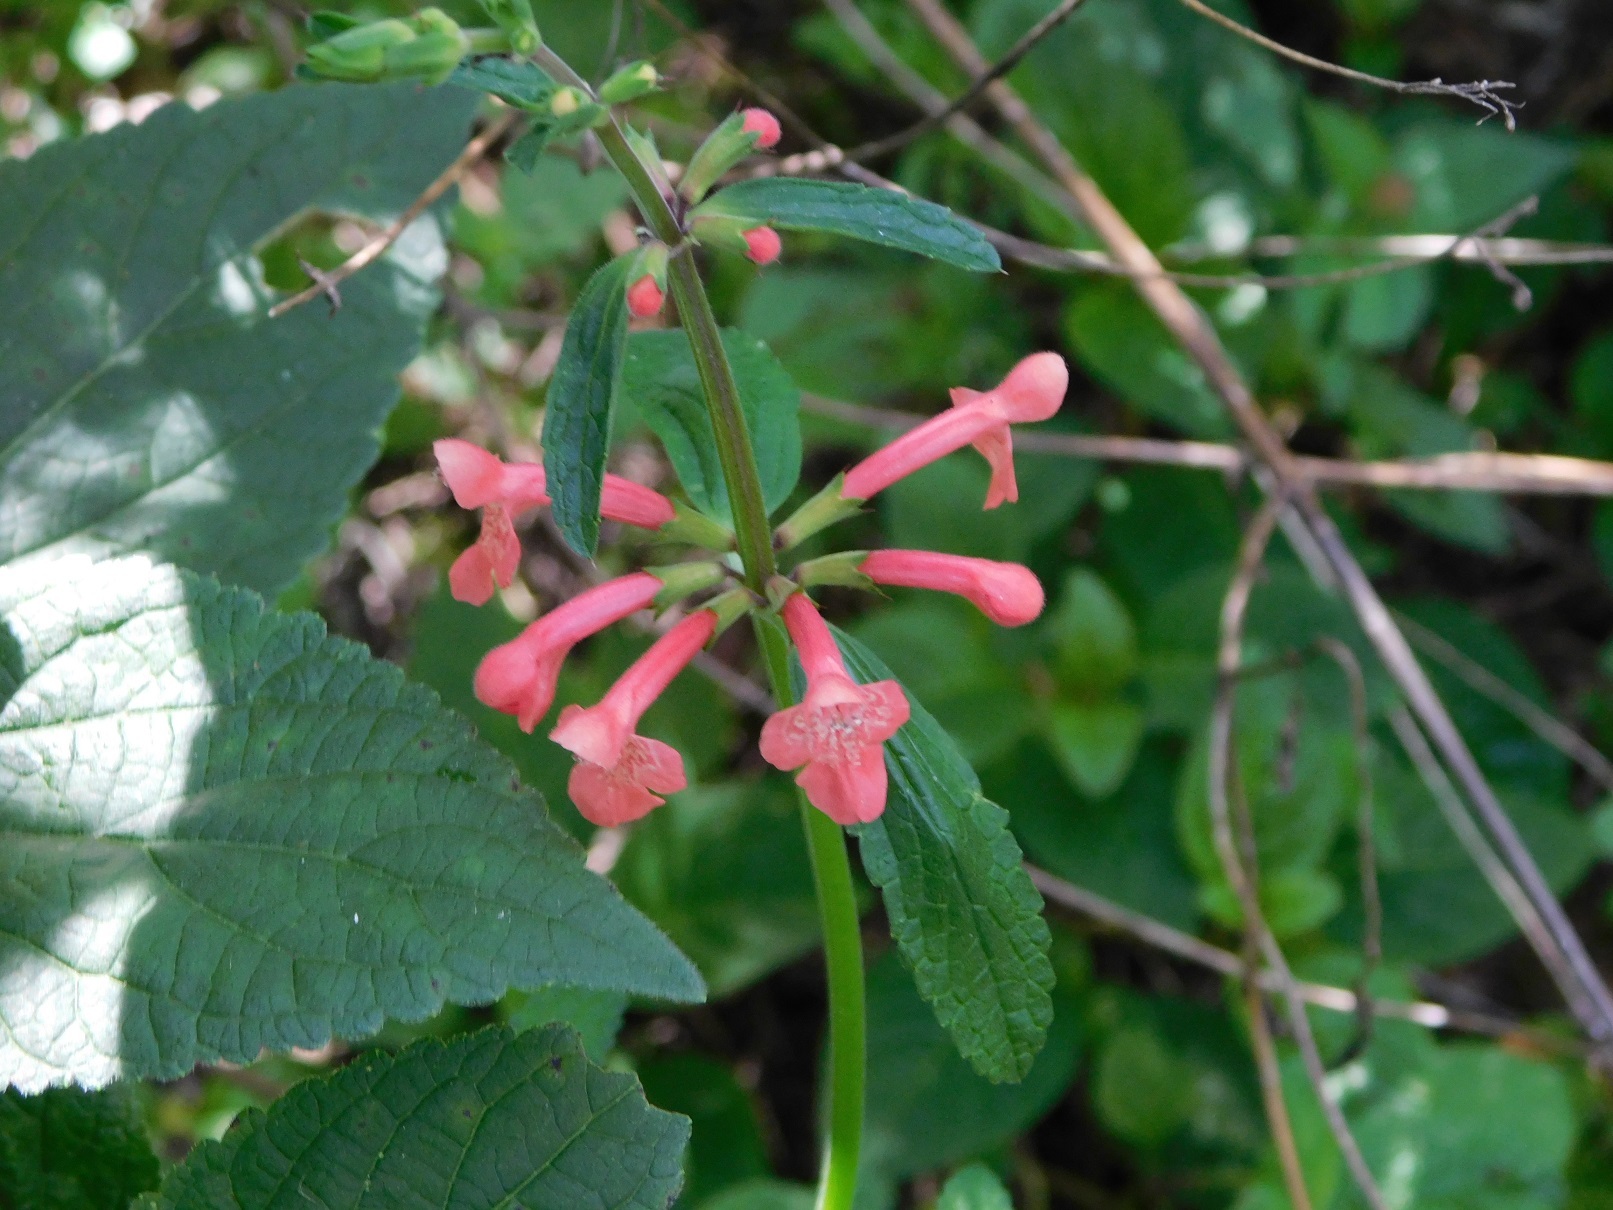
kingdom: Plantae
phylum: Tracheophyta
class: Magnoliopsida
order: Lamiales
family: Lamiaceae
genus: Stachys
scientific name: Stachys coccinea
